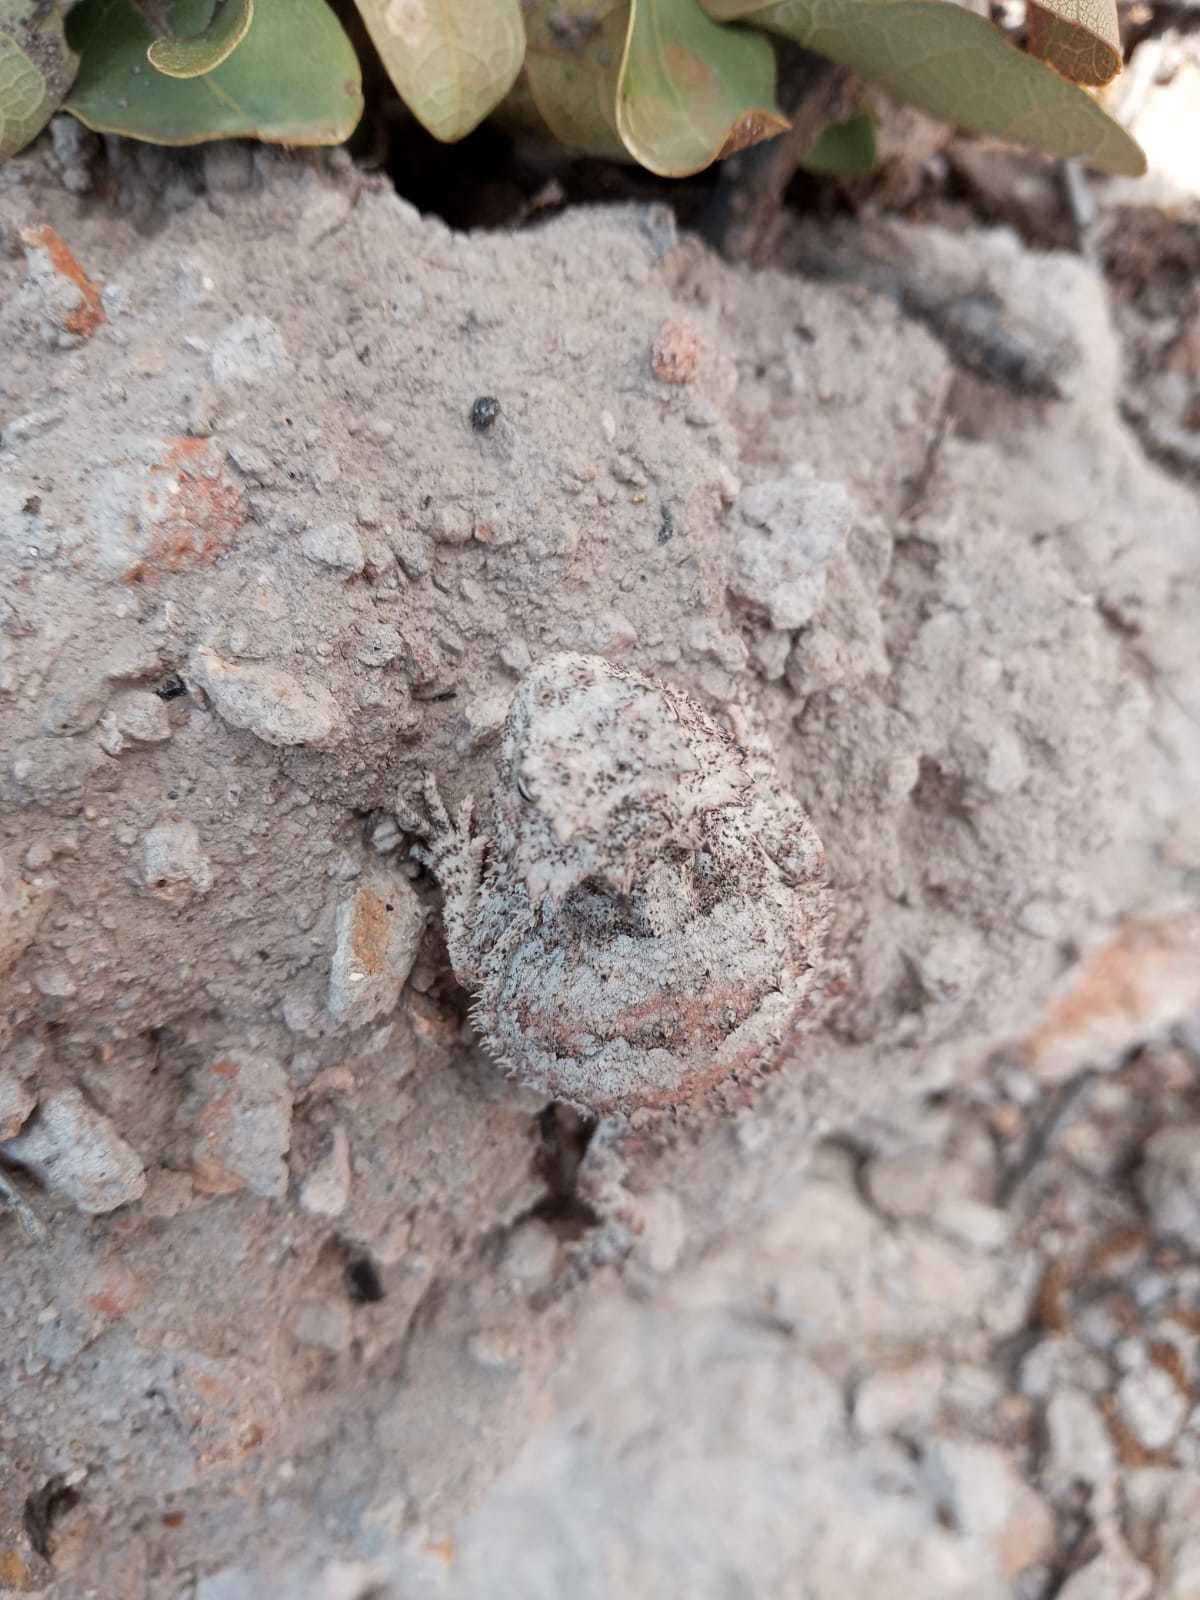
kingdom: Animalia
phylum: Chordata
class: Squamata
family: Phrynosomatidae
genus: Phrynosoma
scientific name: Phrynosoma braconnieri
